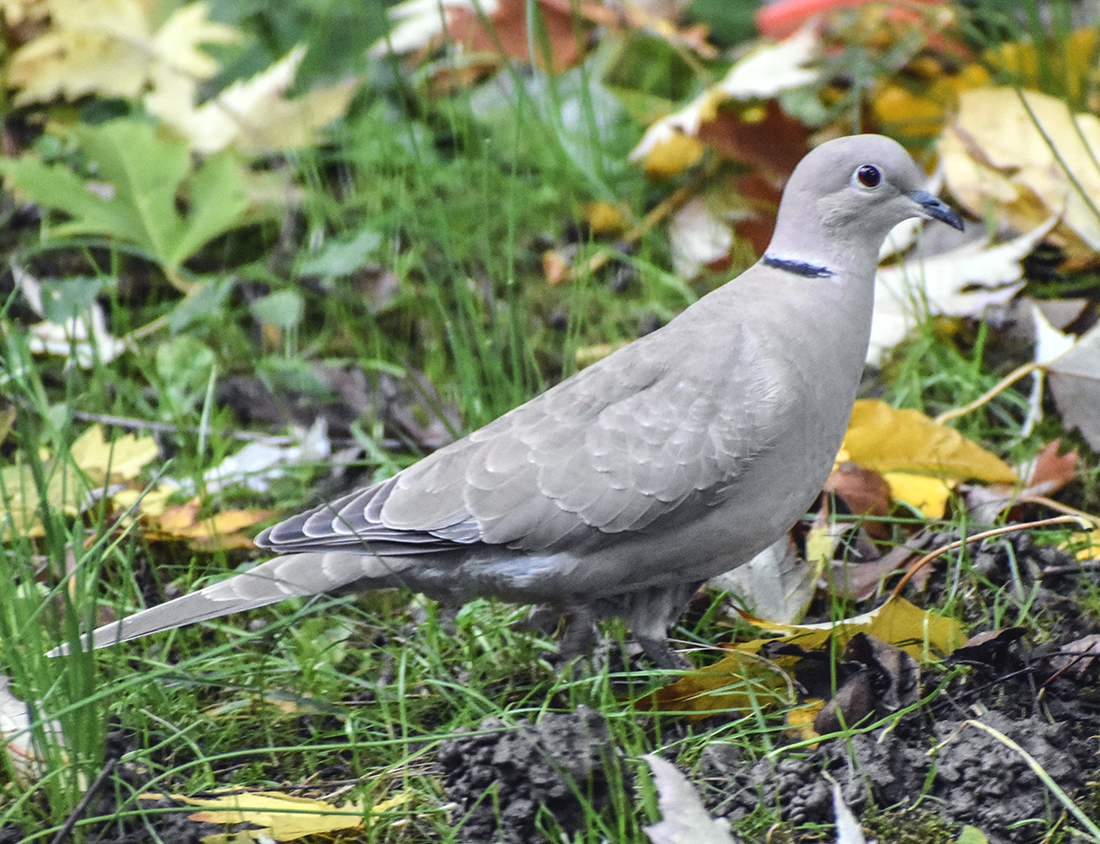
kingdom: Animalia
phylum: Chordata
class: Aves
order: Columbiformes
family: Columbidae
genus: Streptopelia
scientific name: Streptopelia decaocto
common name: Eurasian collared dove
